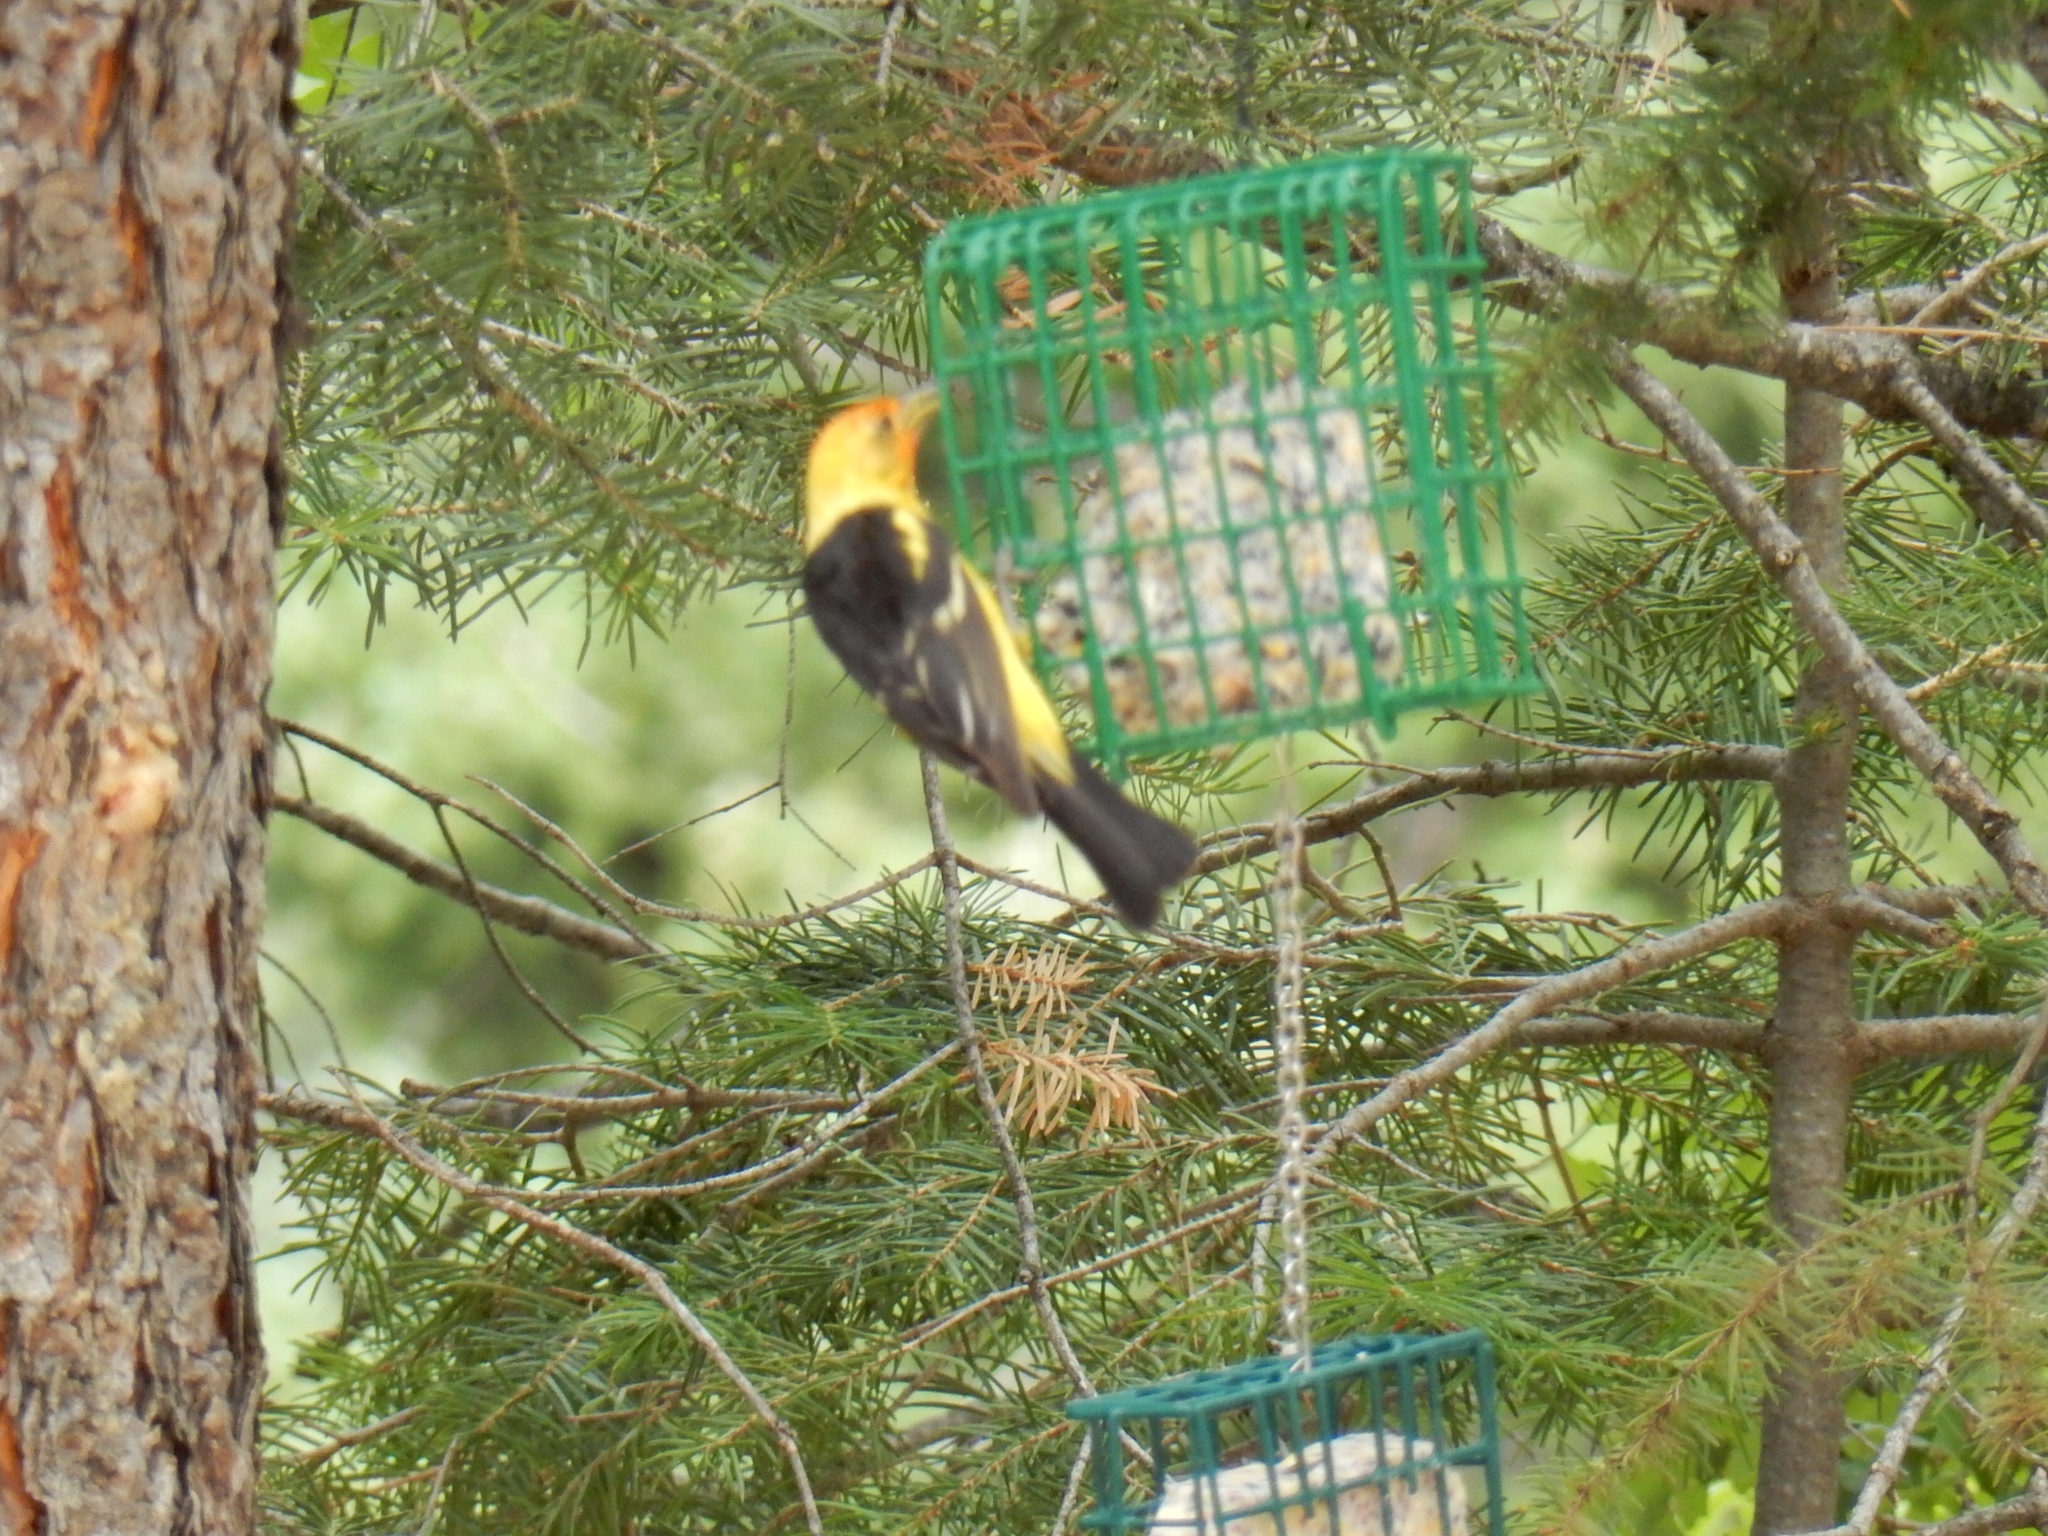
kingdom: Animalia
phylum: Chordata
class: Aves
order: Passeriformes
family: Cardinalidae
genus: Piranga
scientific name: Piranga ludoviciana
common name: Western tanager
